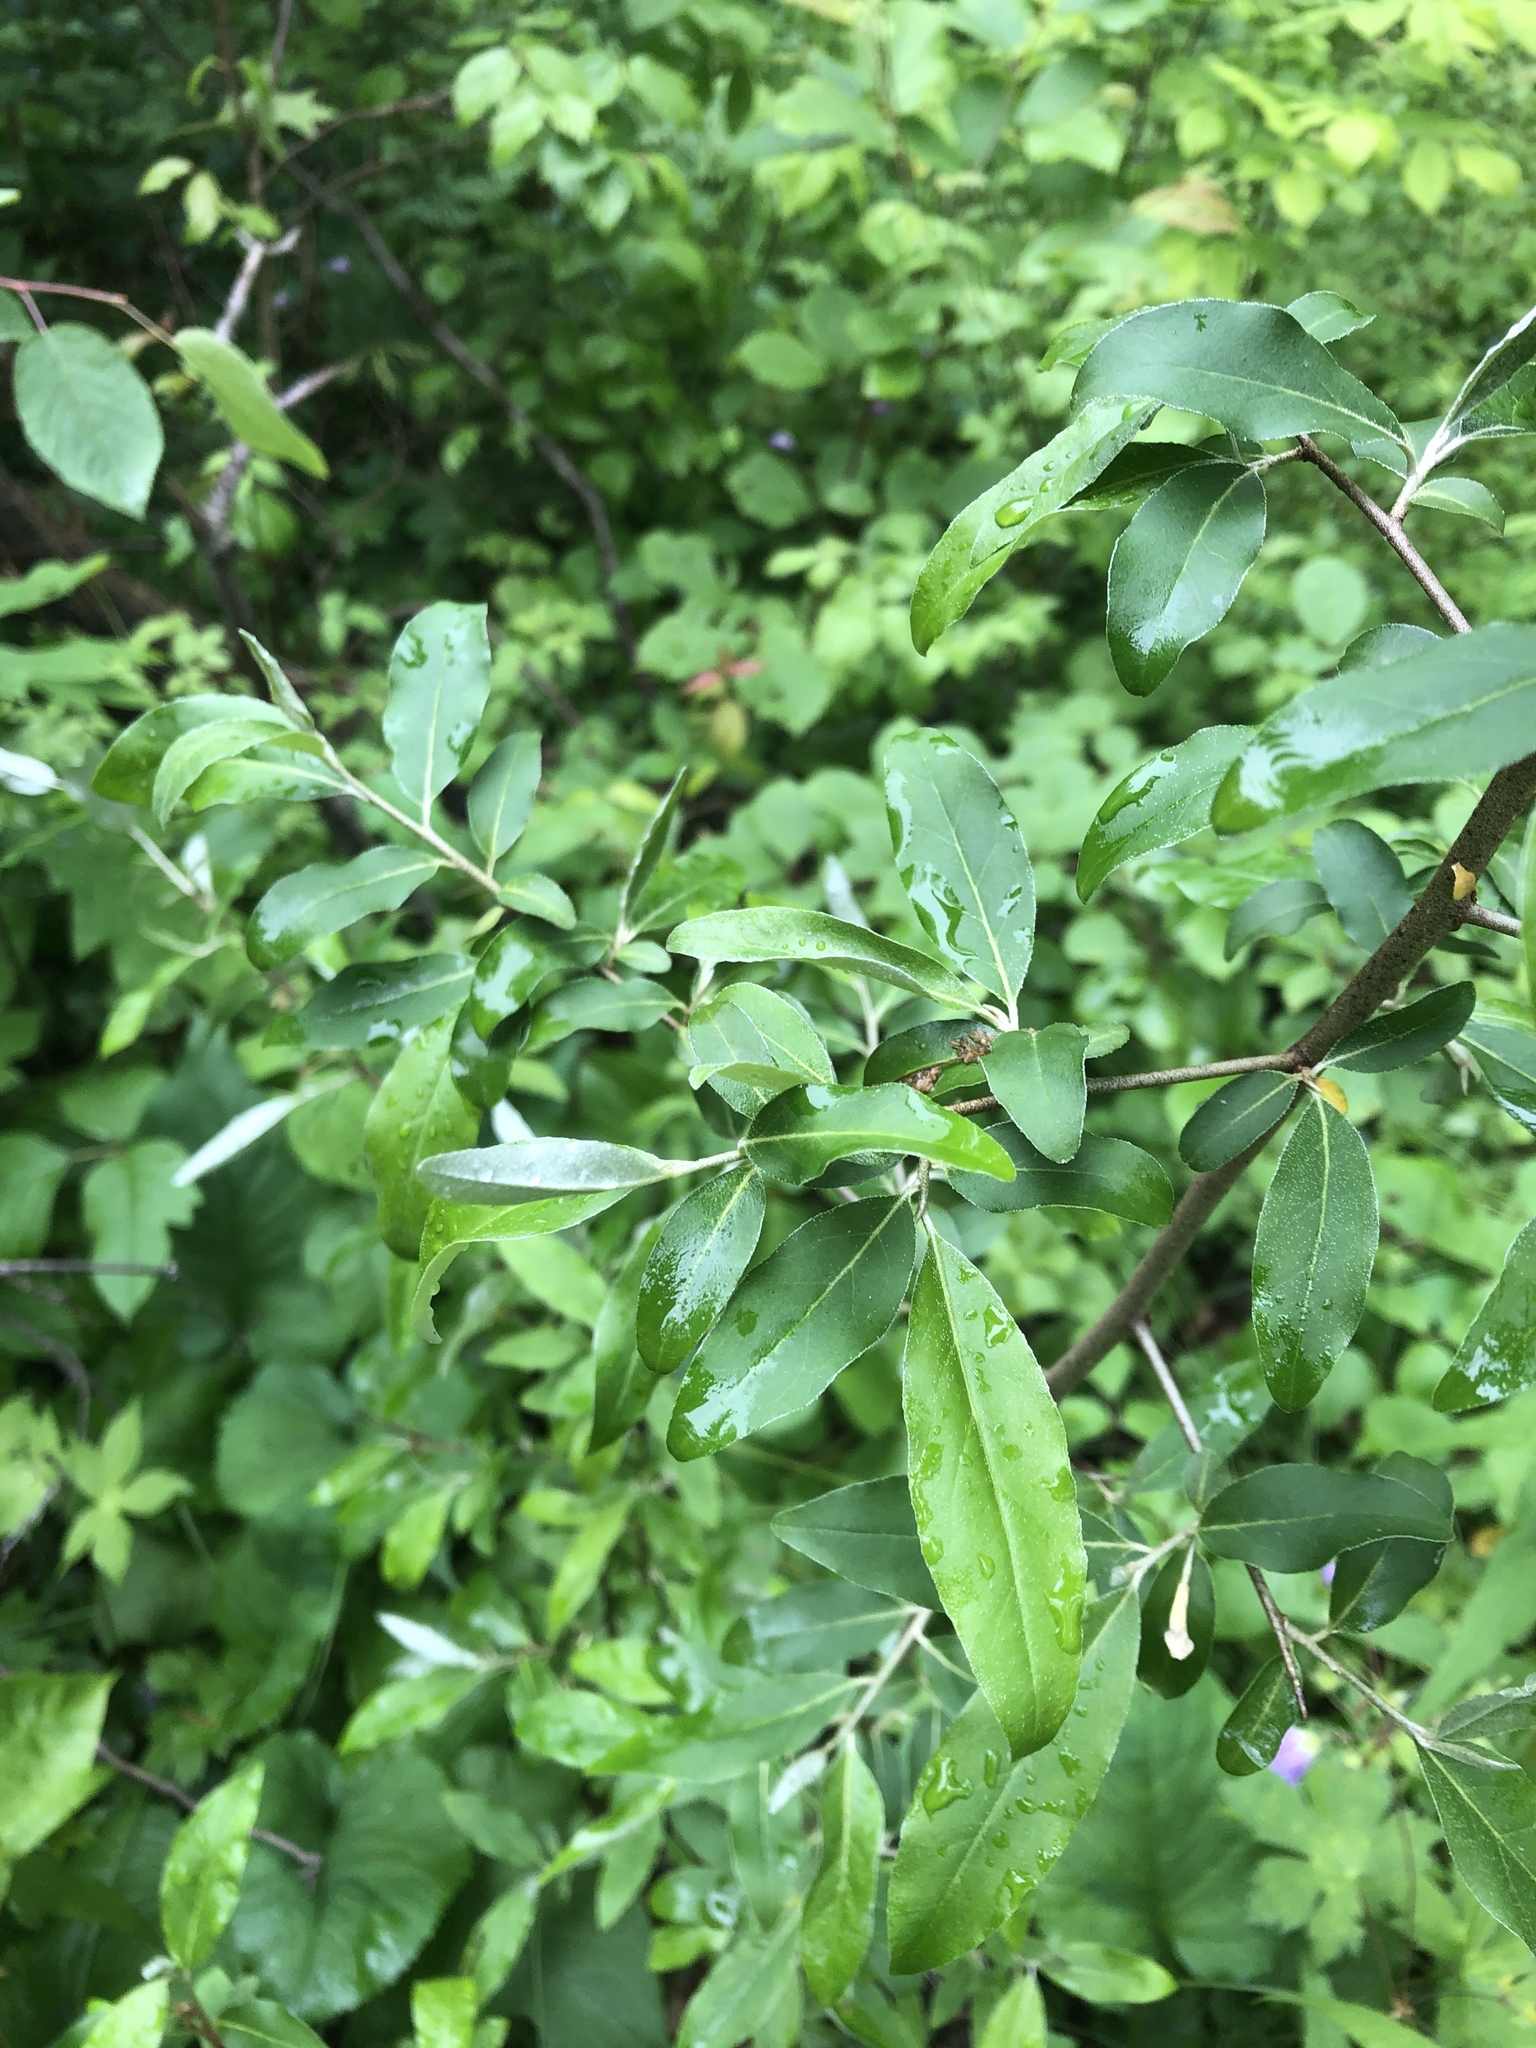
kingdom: Plantae
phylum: Tracheophyta
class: Magnoliopsida
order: Rosales
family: Elaeagnaceae
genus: Elaeagnus
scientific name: Elaeagnus umbellata
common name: Autumn olive
